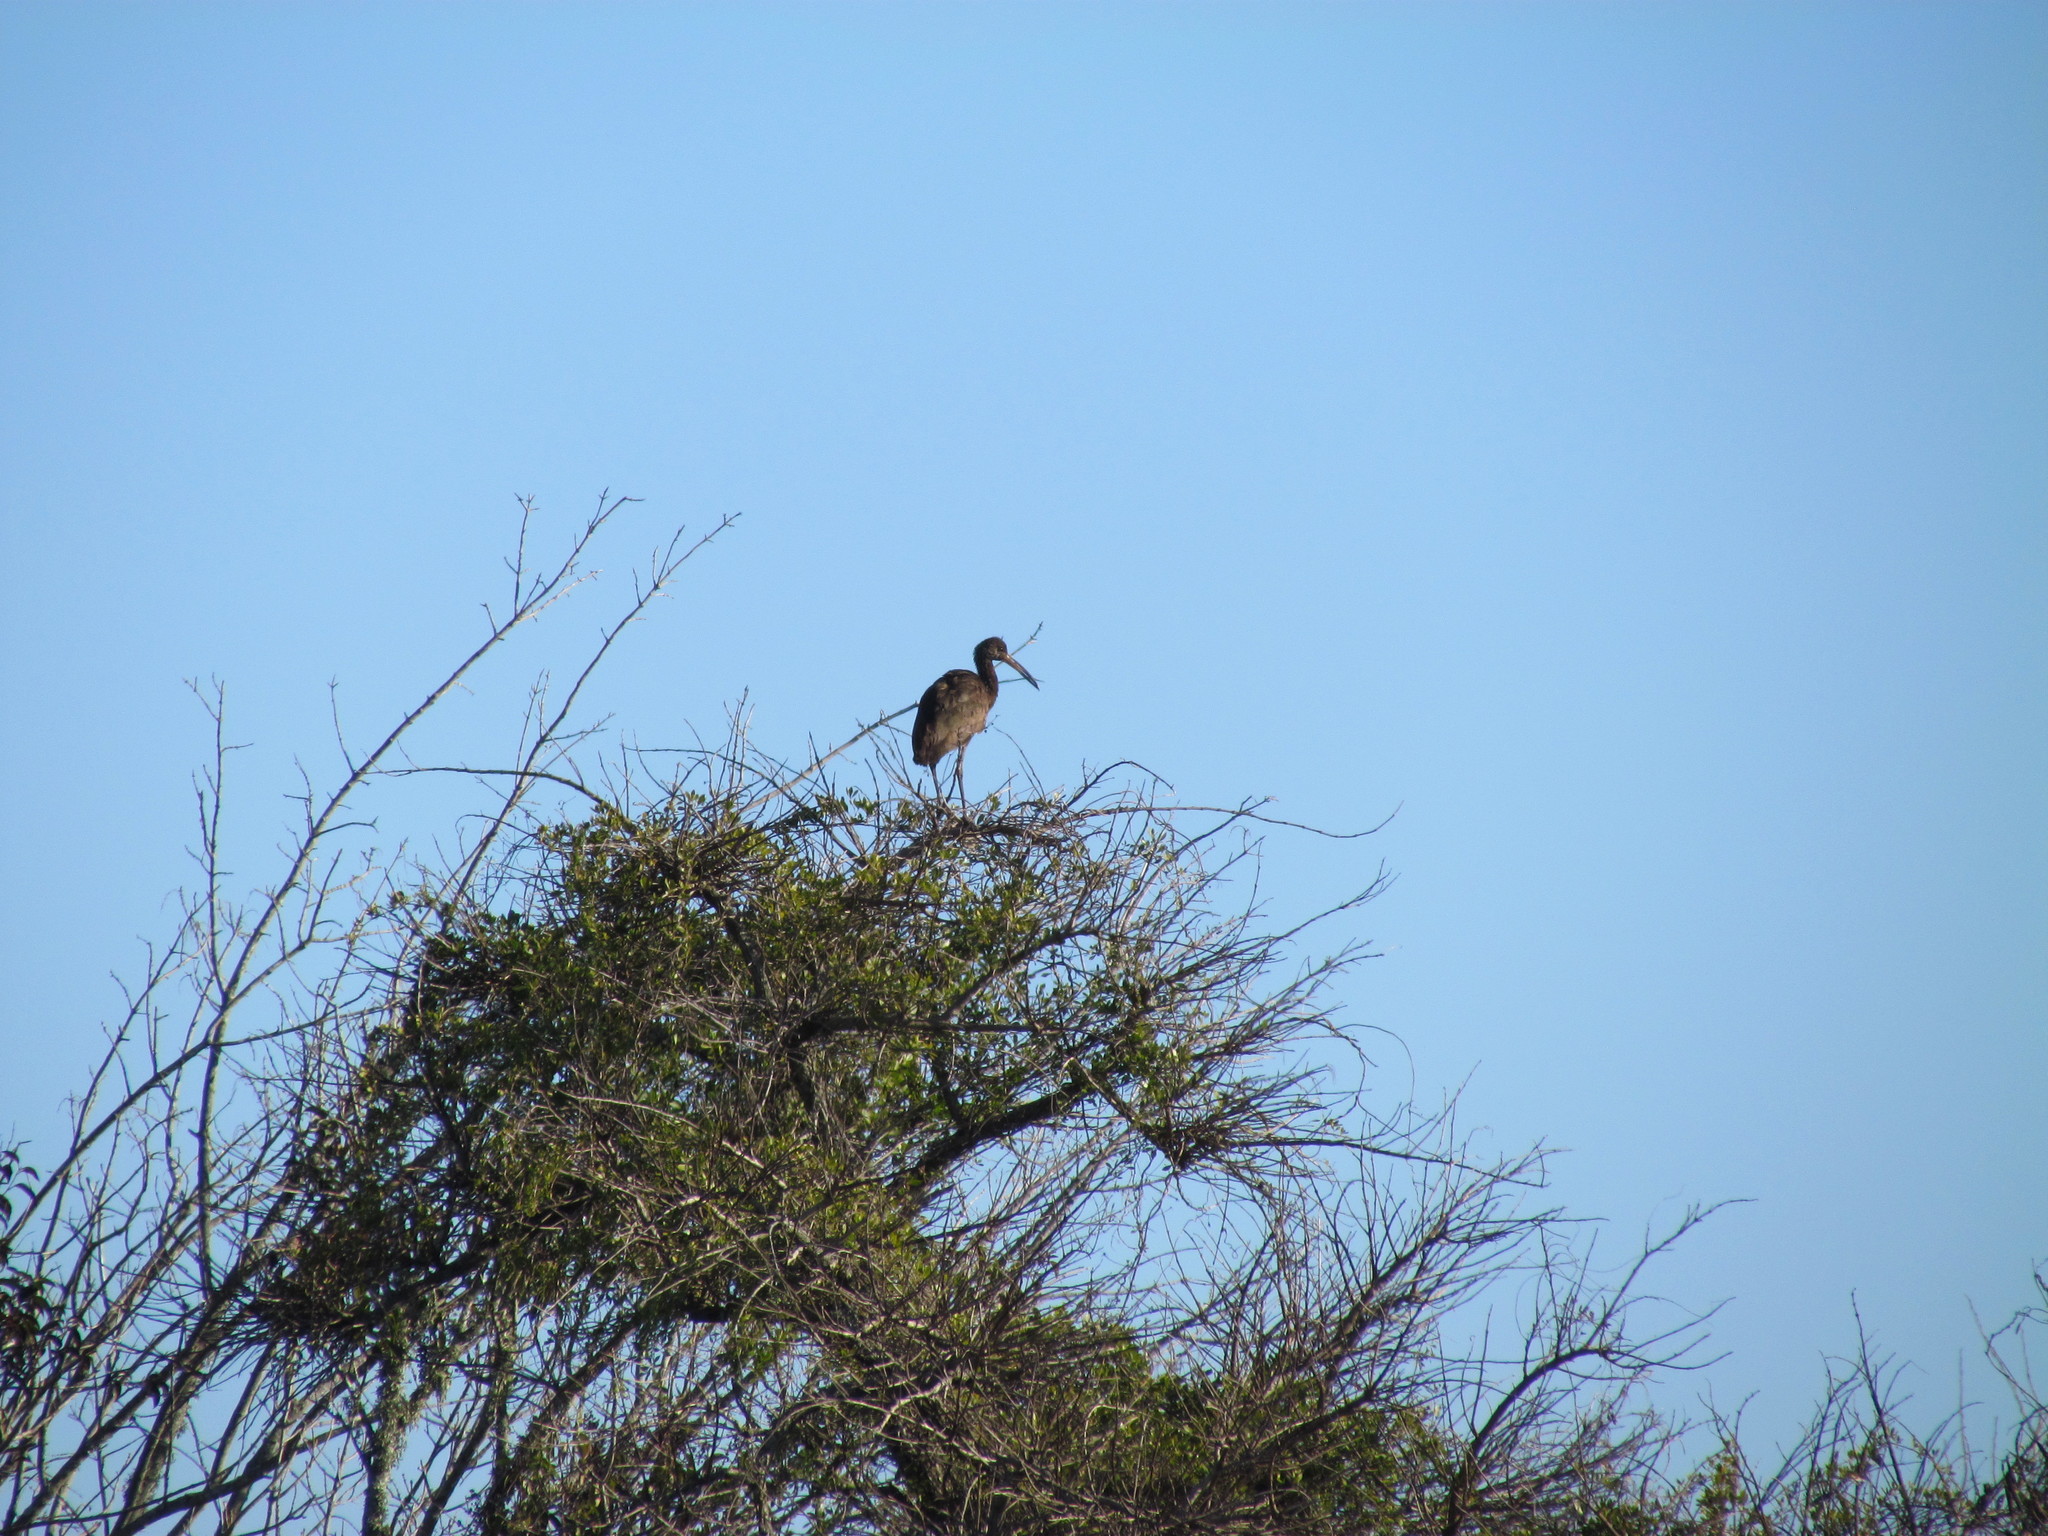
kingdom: Animalia
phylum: Chordata
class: Aves
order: Gruiformes
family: Aramidae
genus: Aramus
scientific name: Aramus guarauna
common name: Limpkin
